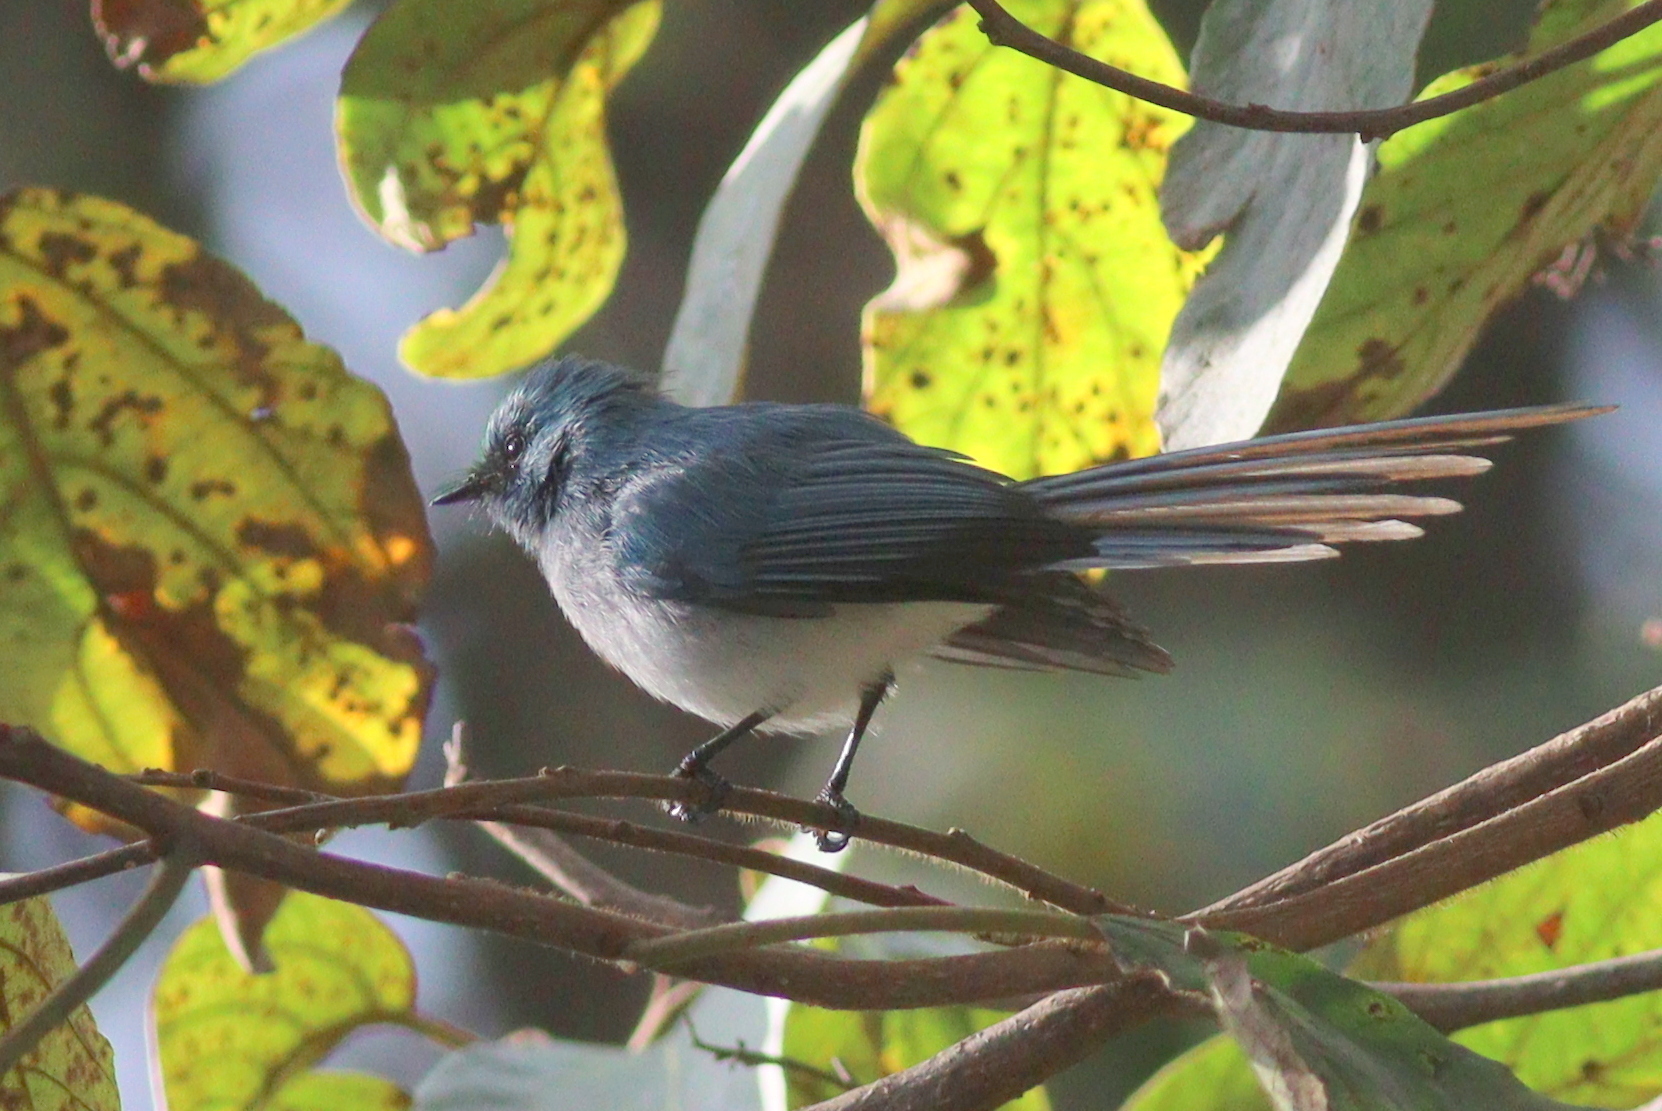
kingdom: Animalia
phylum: Chordata
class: Aves
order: Passeriformes
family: Stenostiridae
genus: Elminia
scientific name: Elminia longicauda
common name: African blue flycatcher
